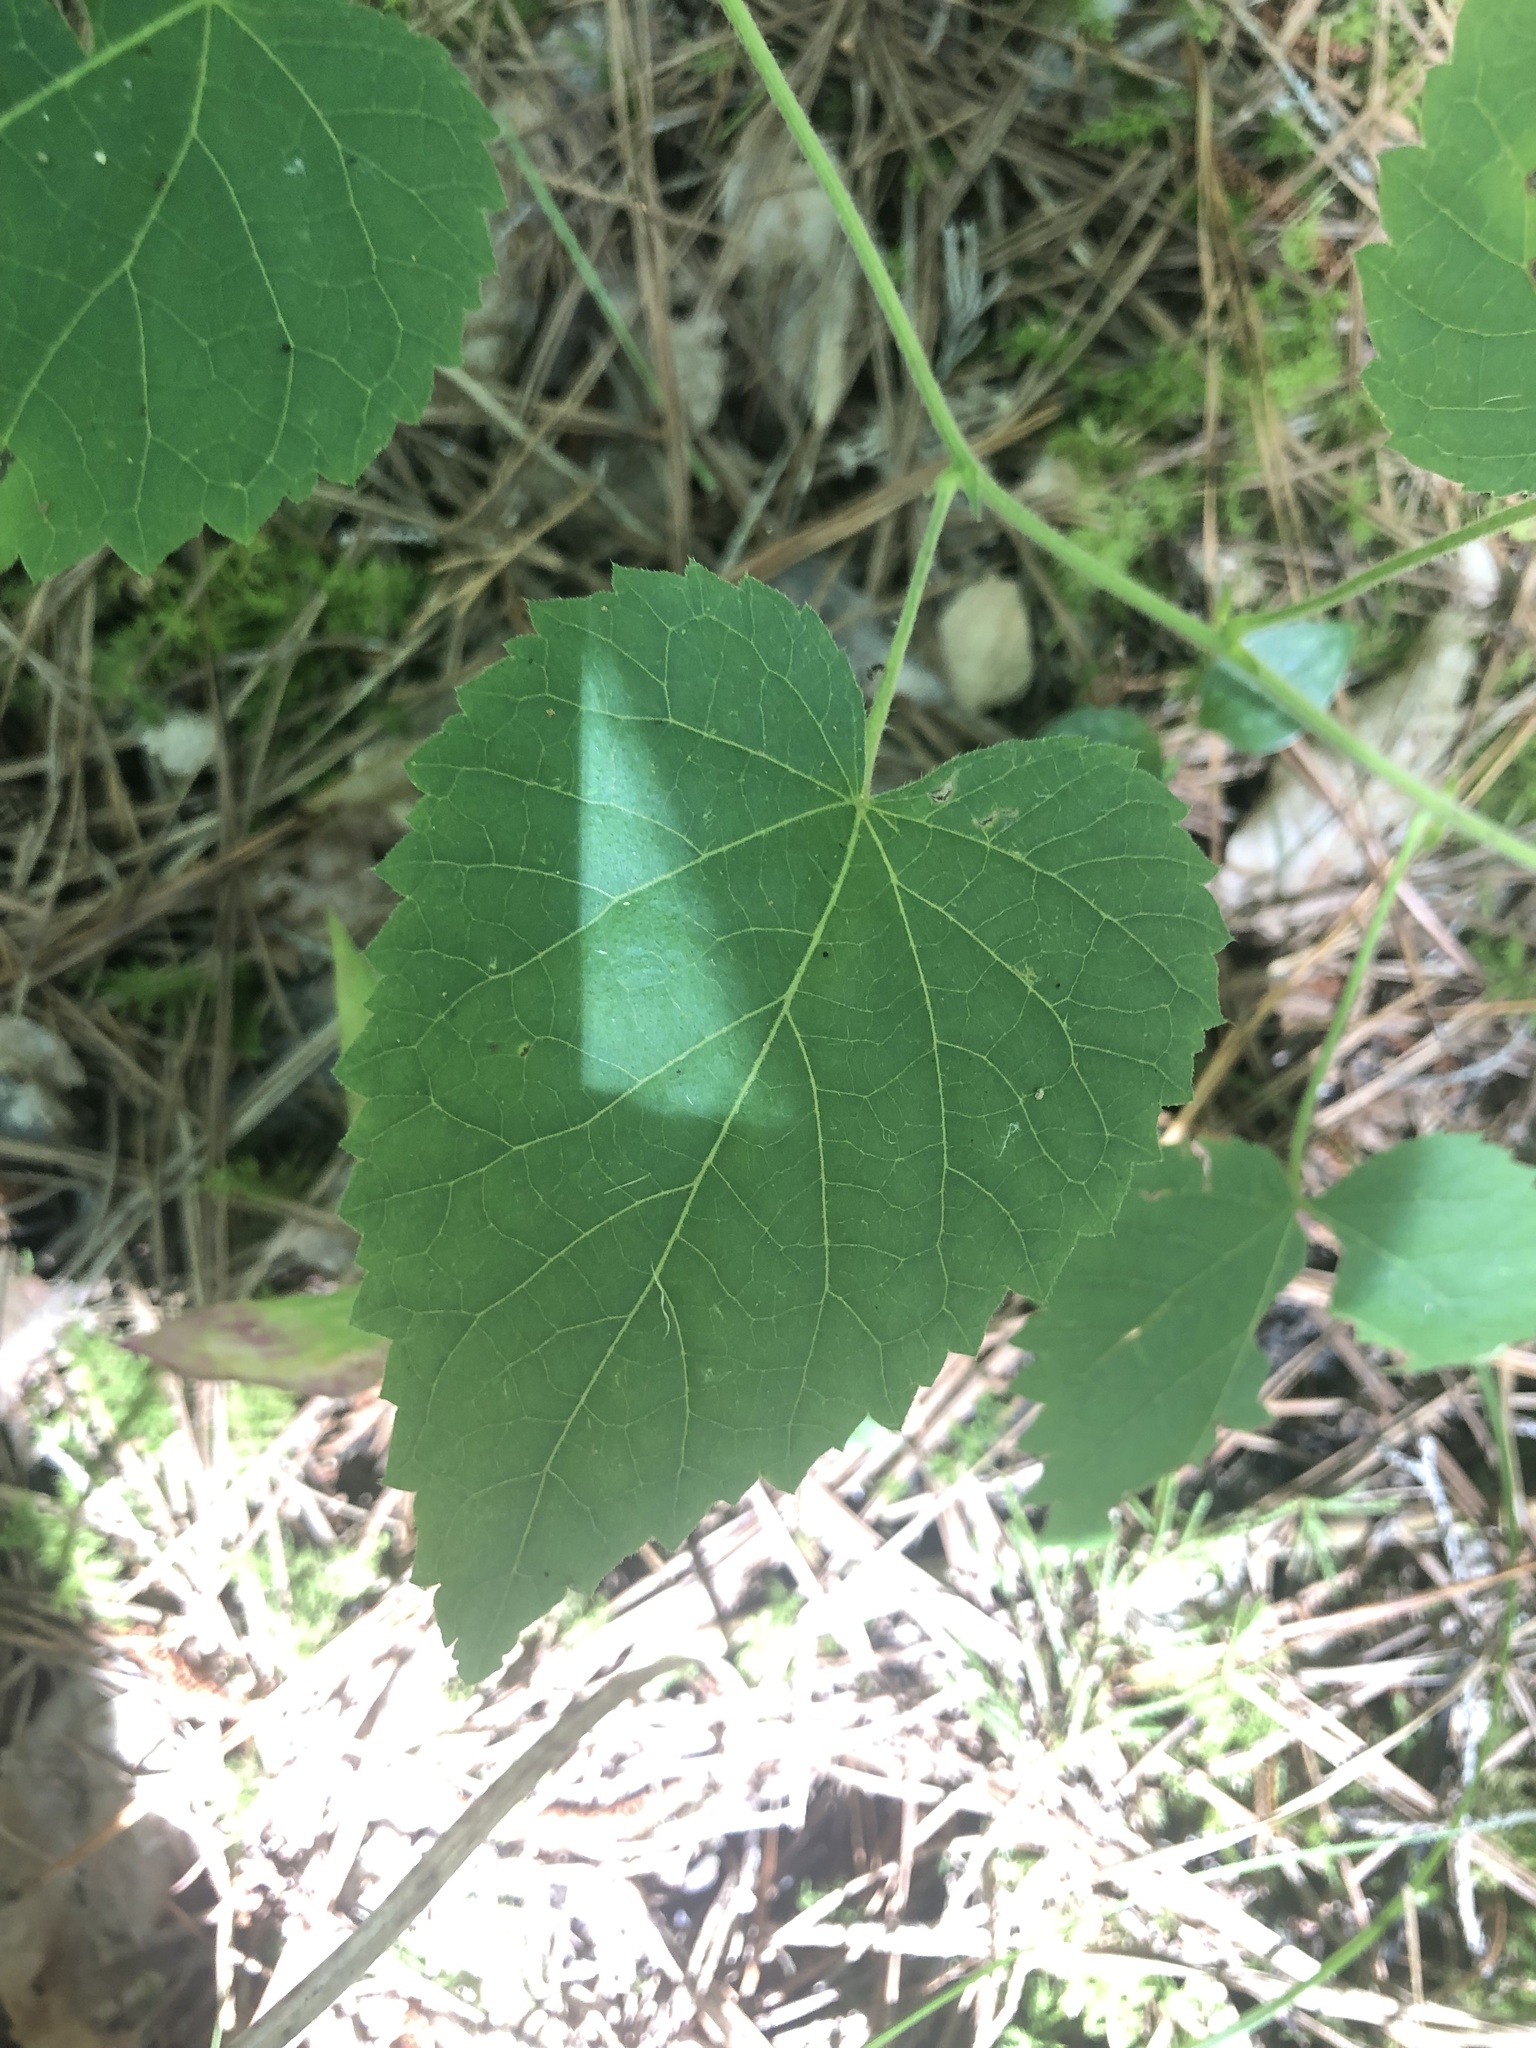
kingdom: Plantae
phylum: Tracheophyta
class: Magnoliopsida
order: Malpighiales
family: Euphorbiaceae
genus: Tragia
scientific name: Tragia cordata
